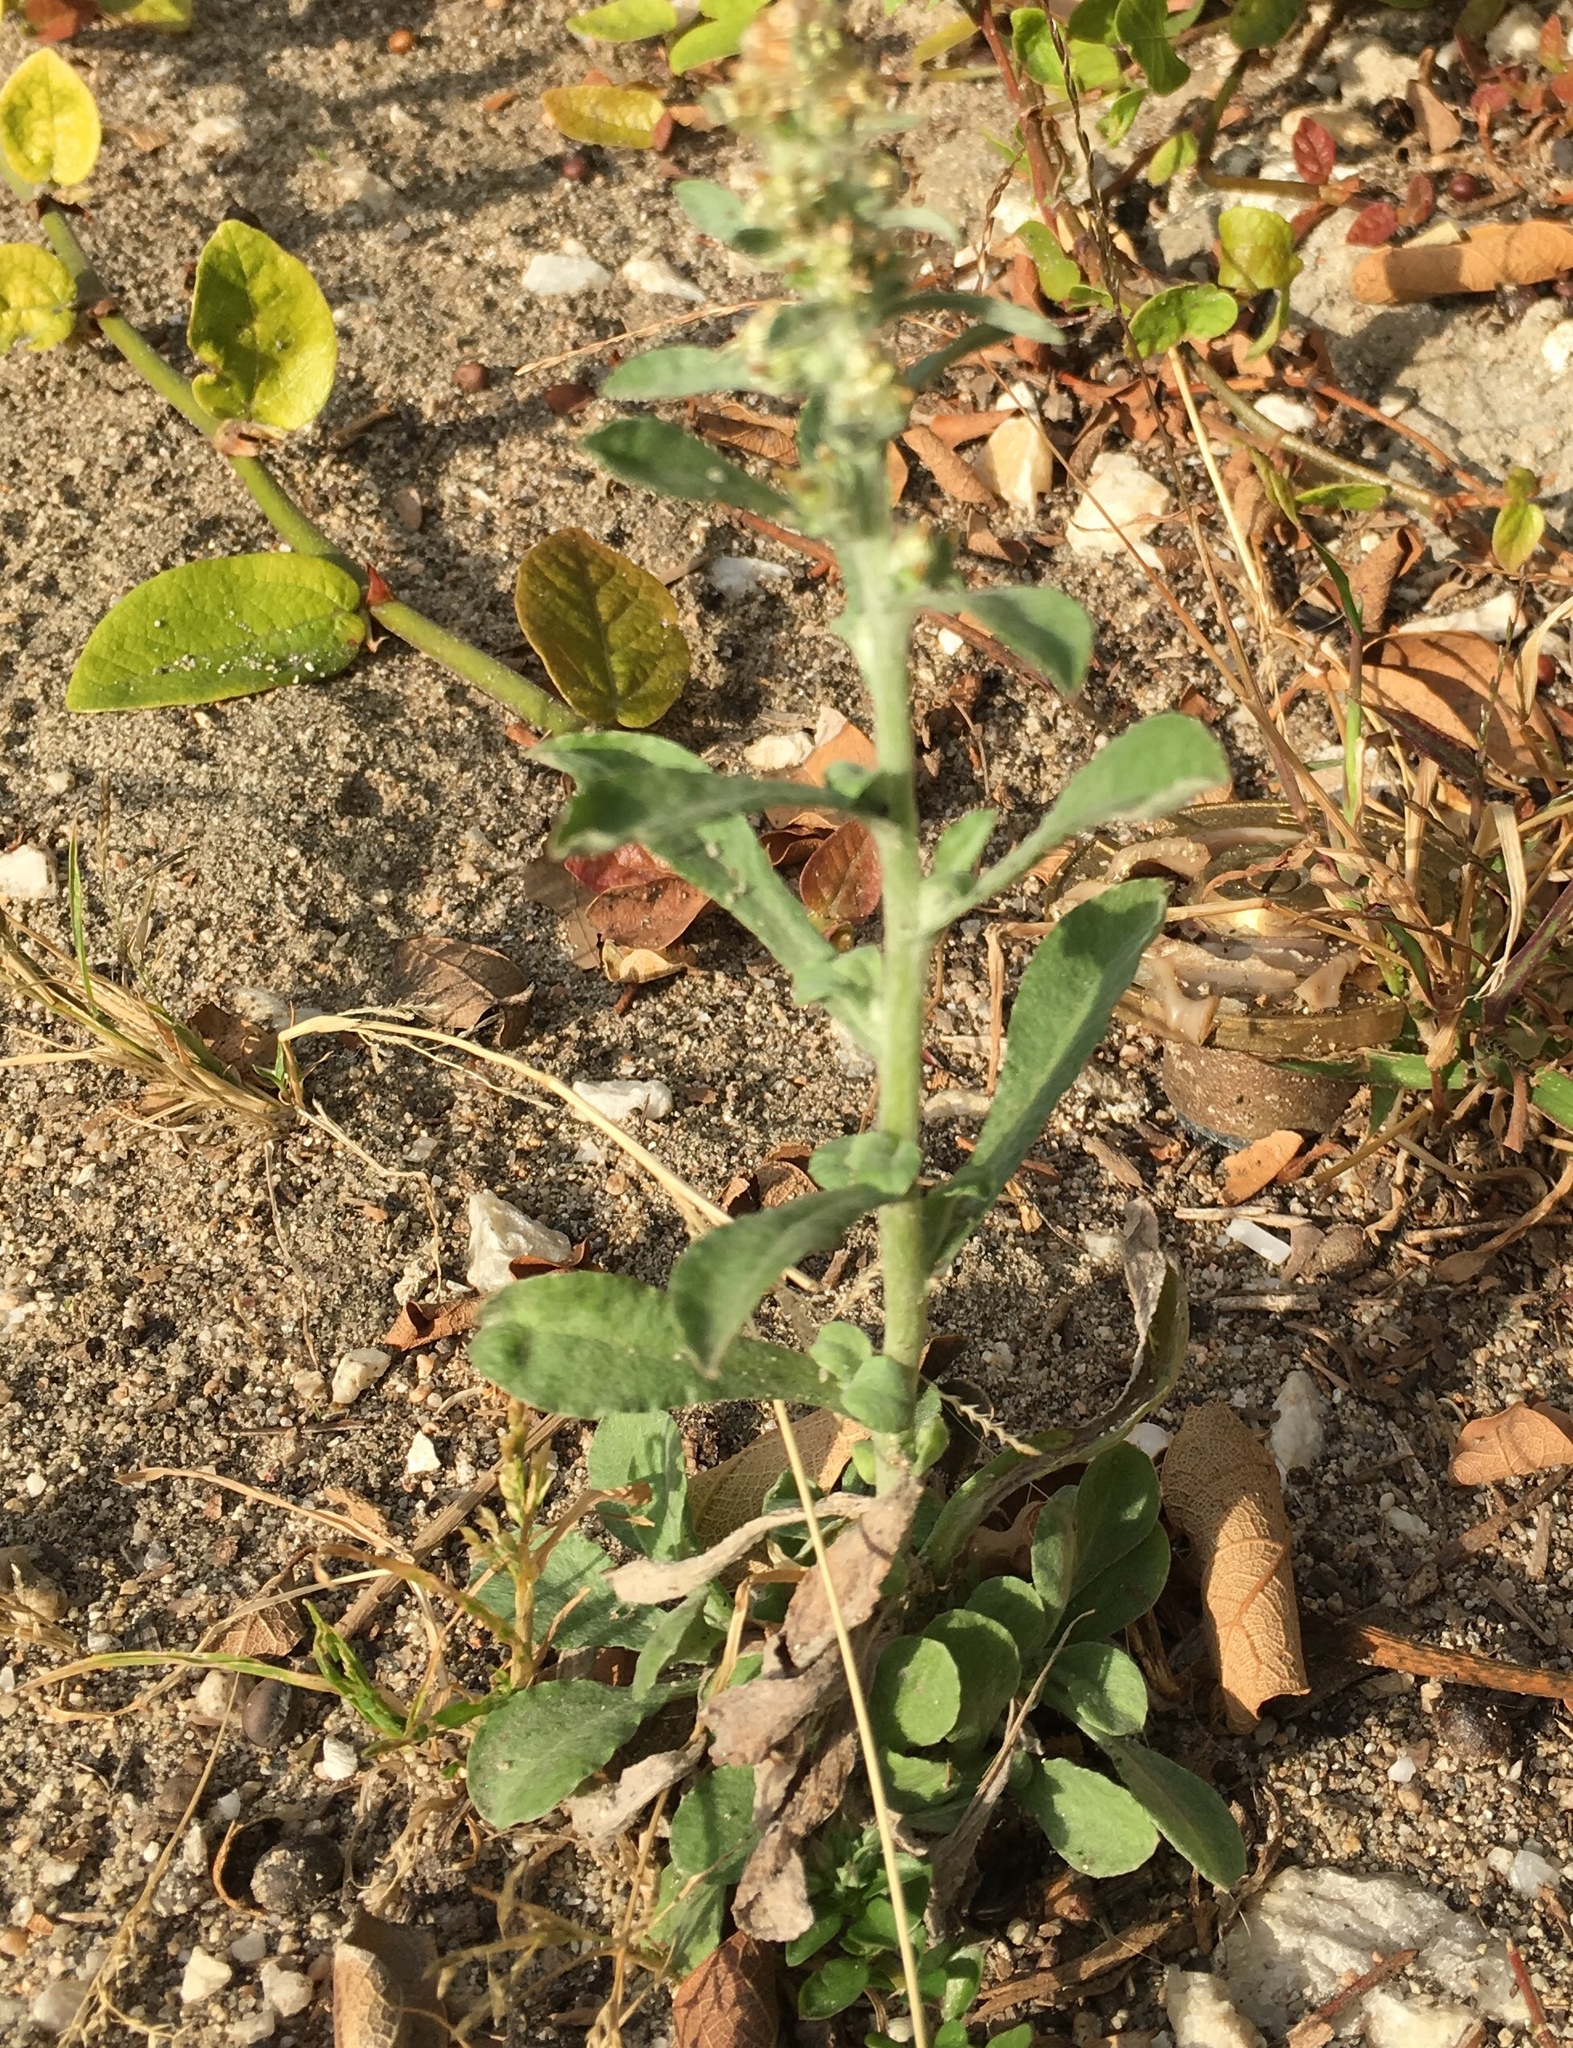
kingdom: Plantae
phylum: Tracheophyta
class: Magnoliopsida
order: Asterales
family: Asteraceae
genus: Helichrysum
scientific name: Helichrysum luteoalbum
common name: Daisy
